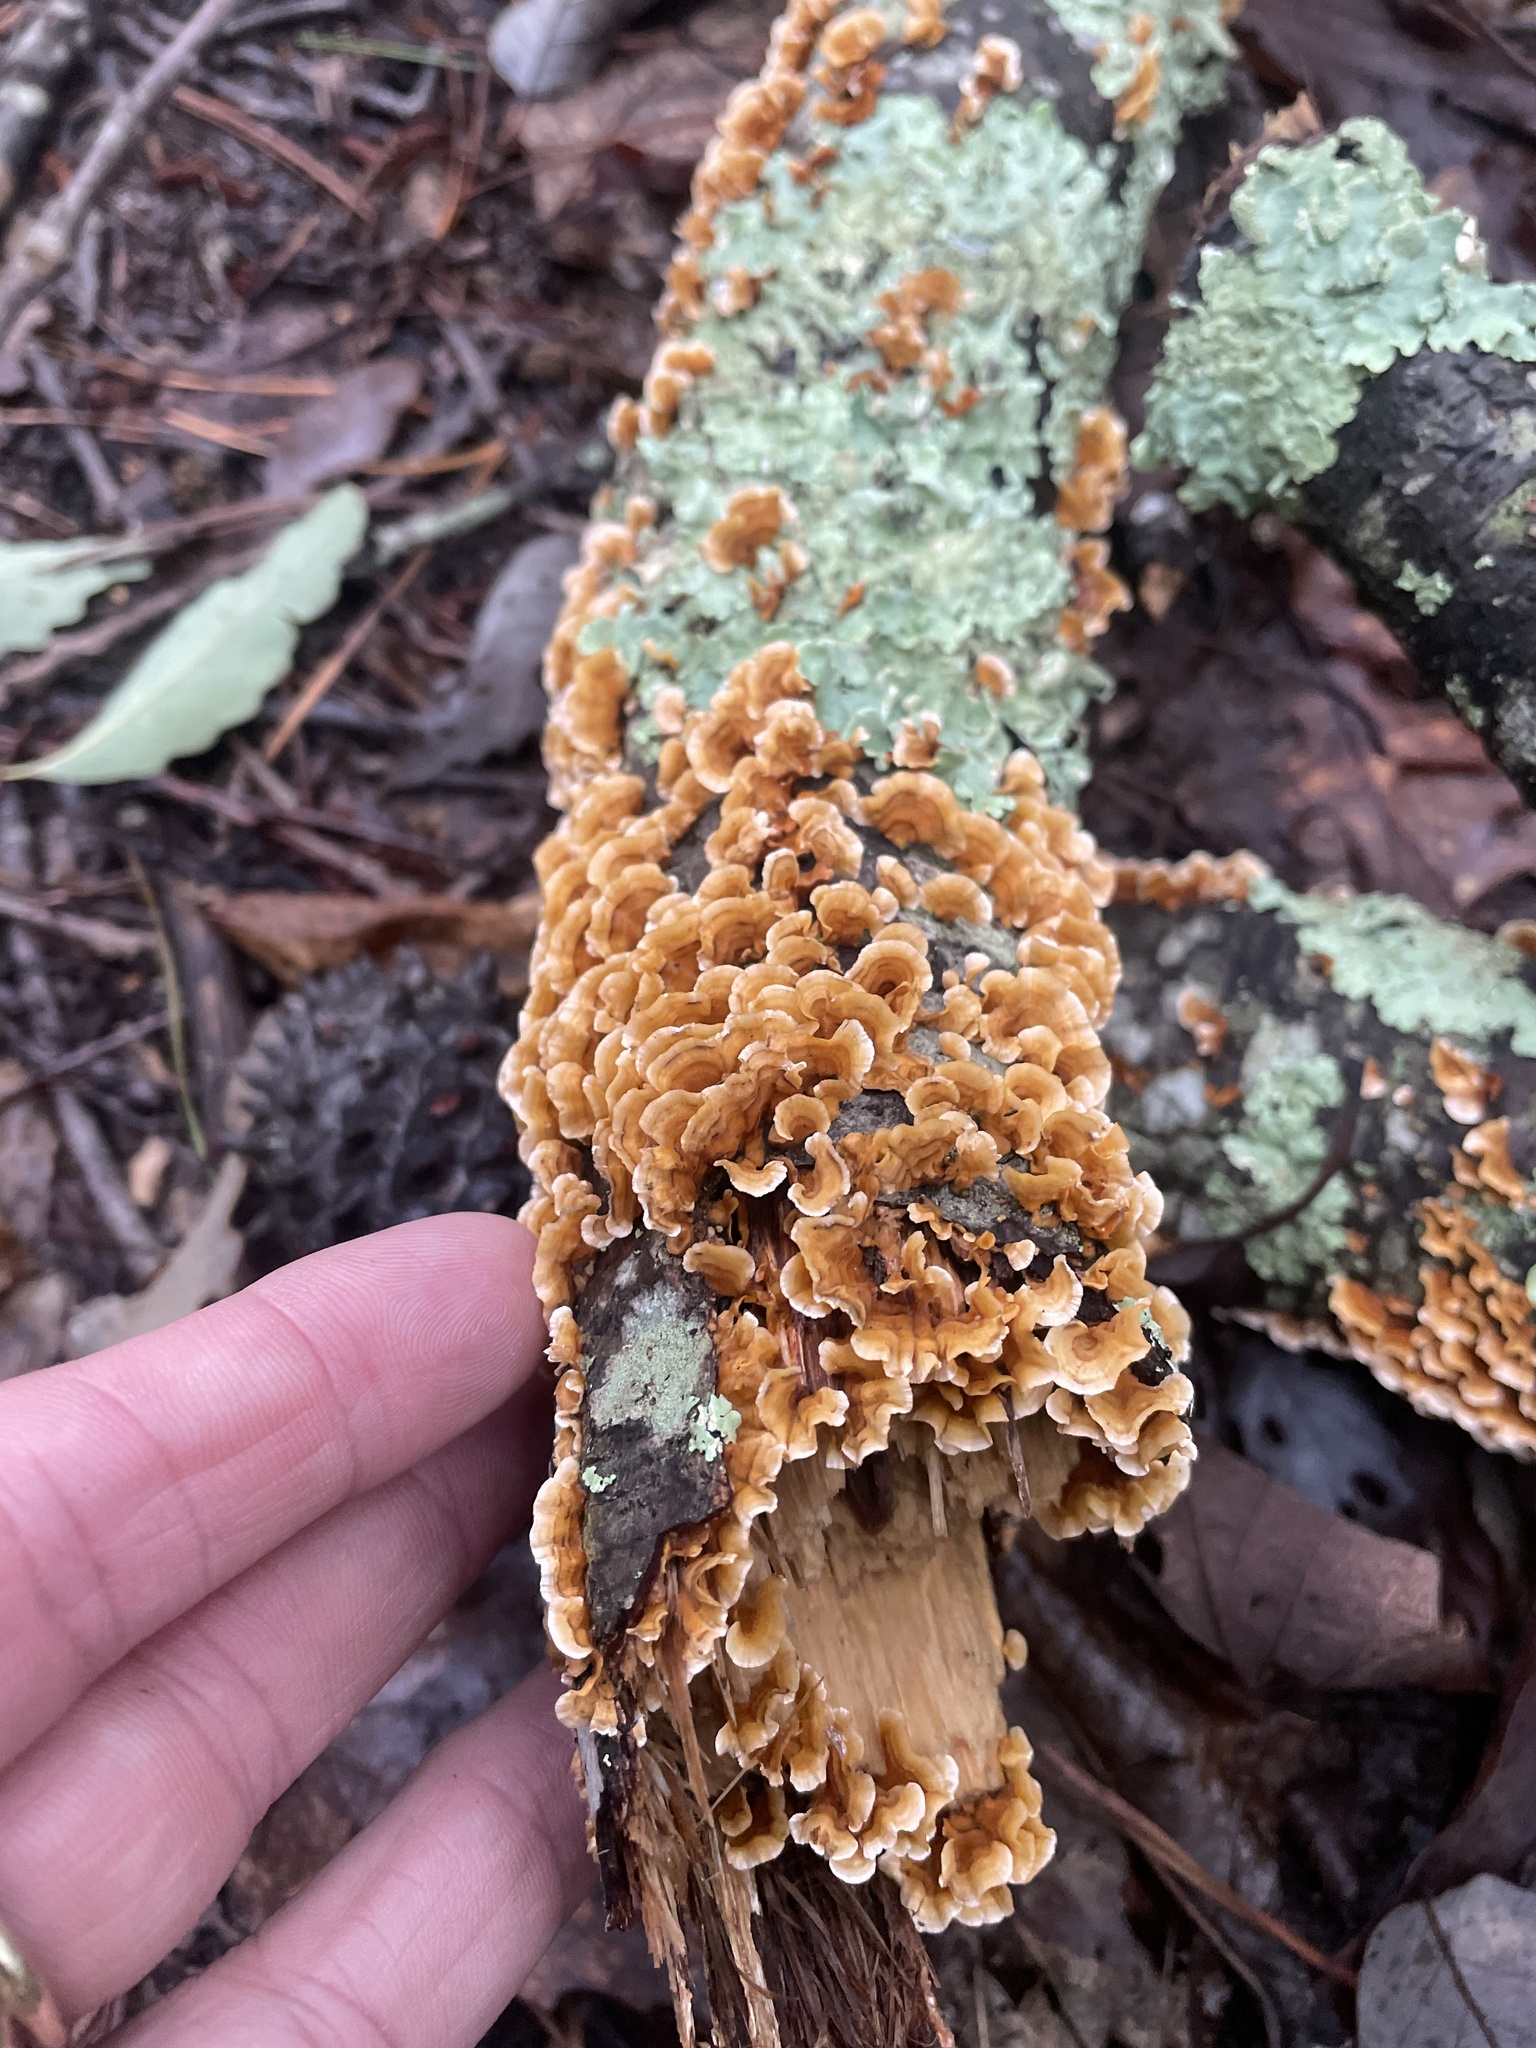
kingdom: Fungi
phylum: Basidiomycota
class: Agaricomycetes
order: Russulales
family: Stereaceae
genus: Stereum
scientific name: Stereum complicatum
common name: Crowded parchment
